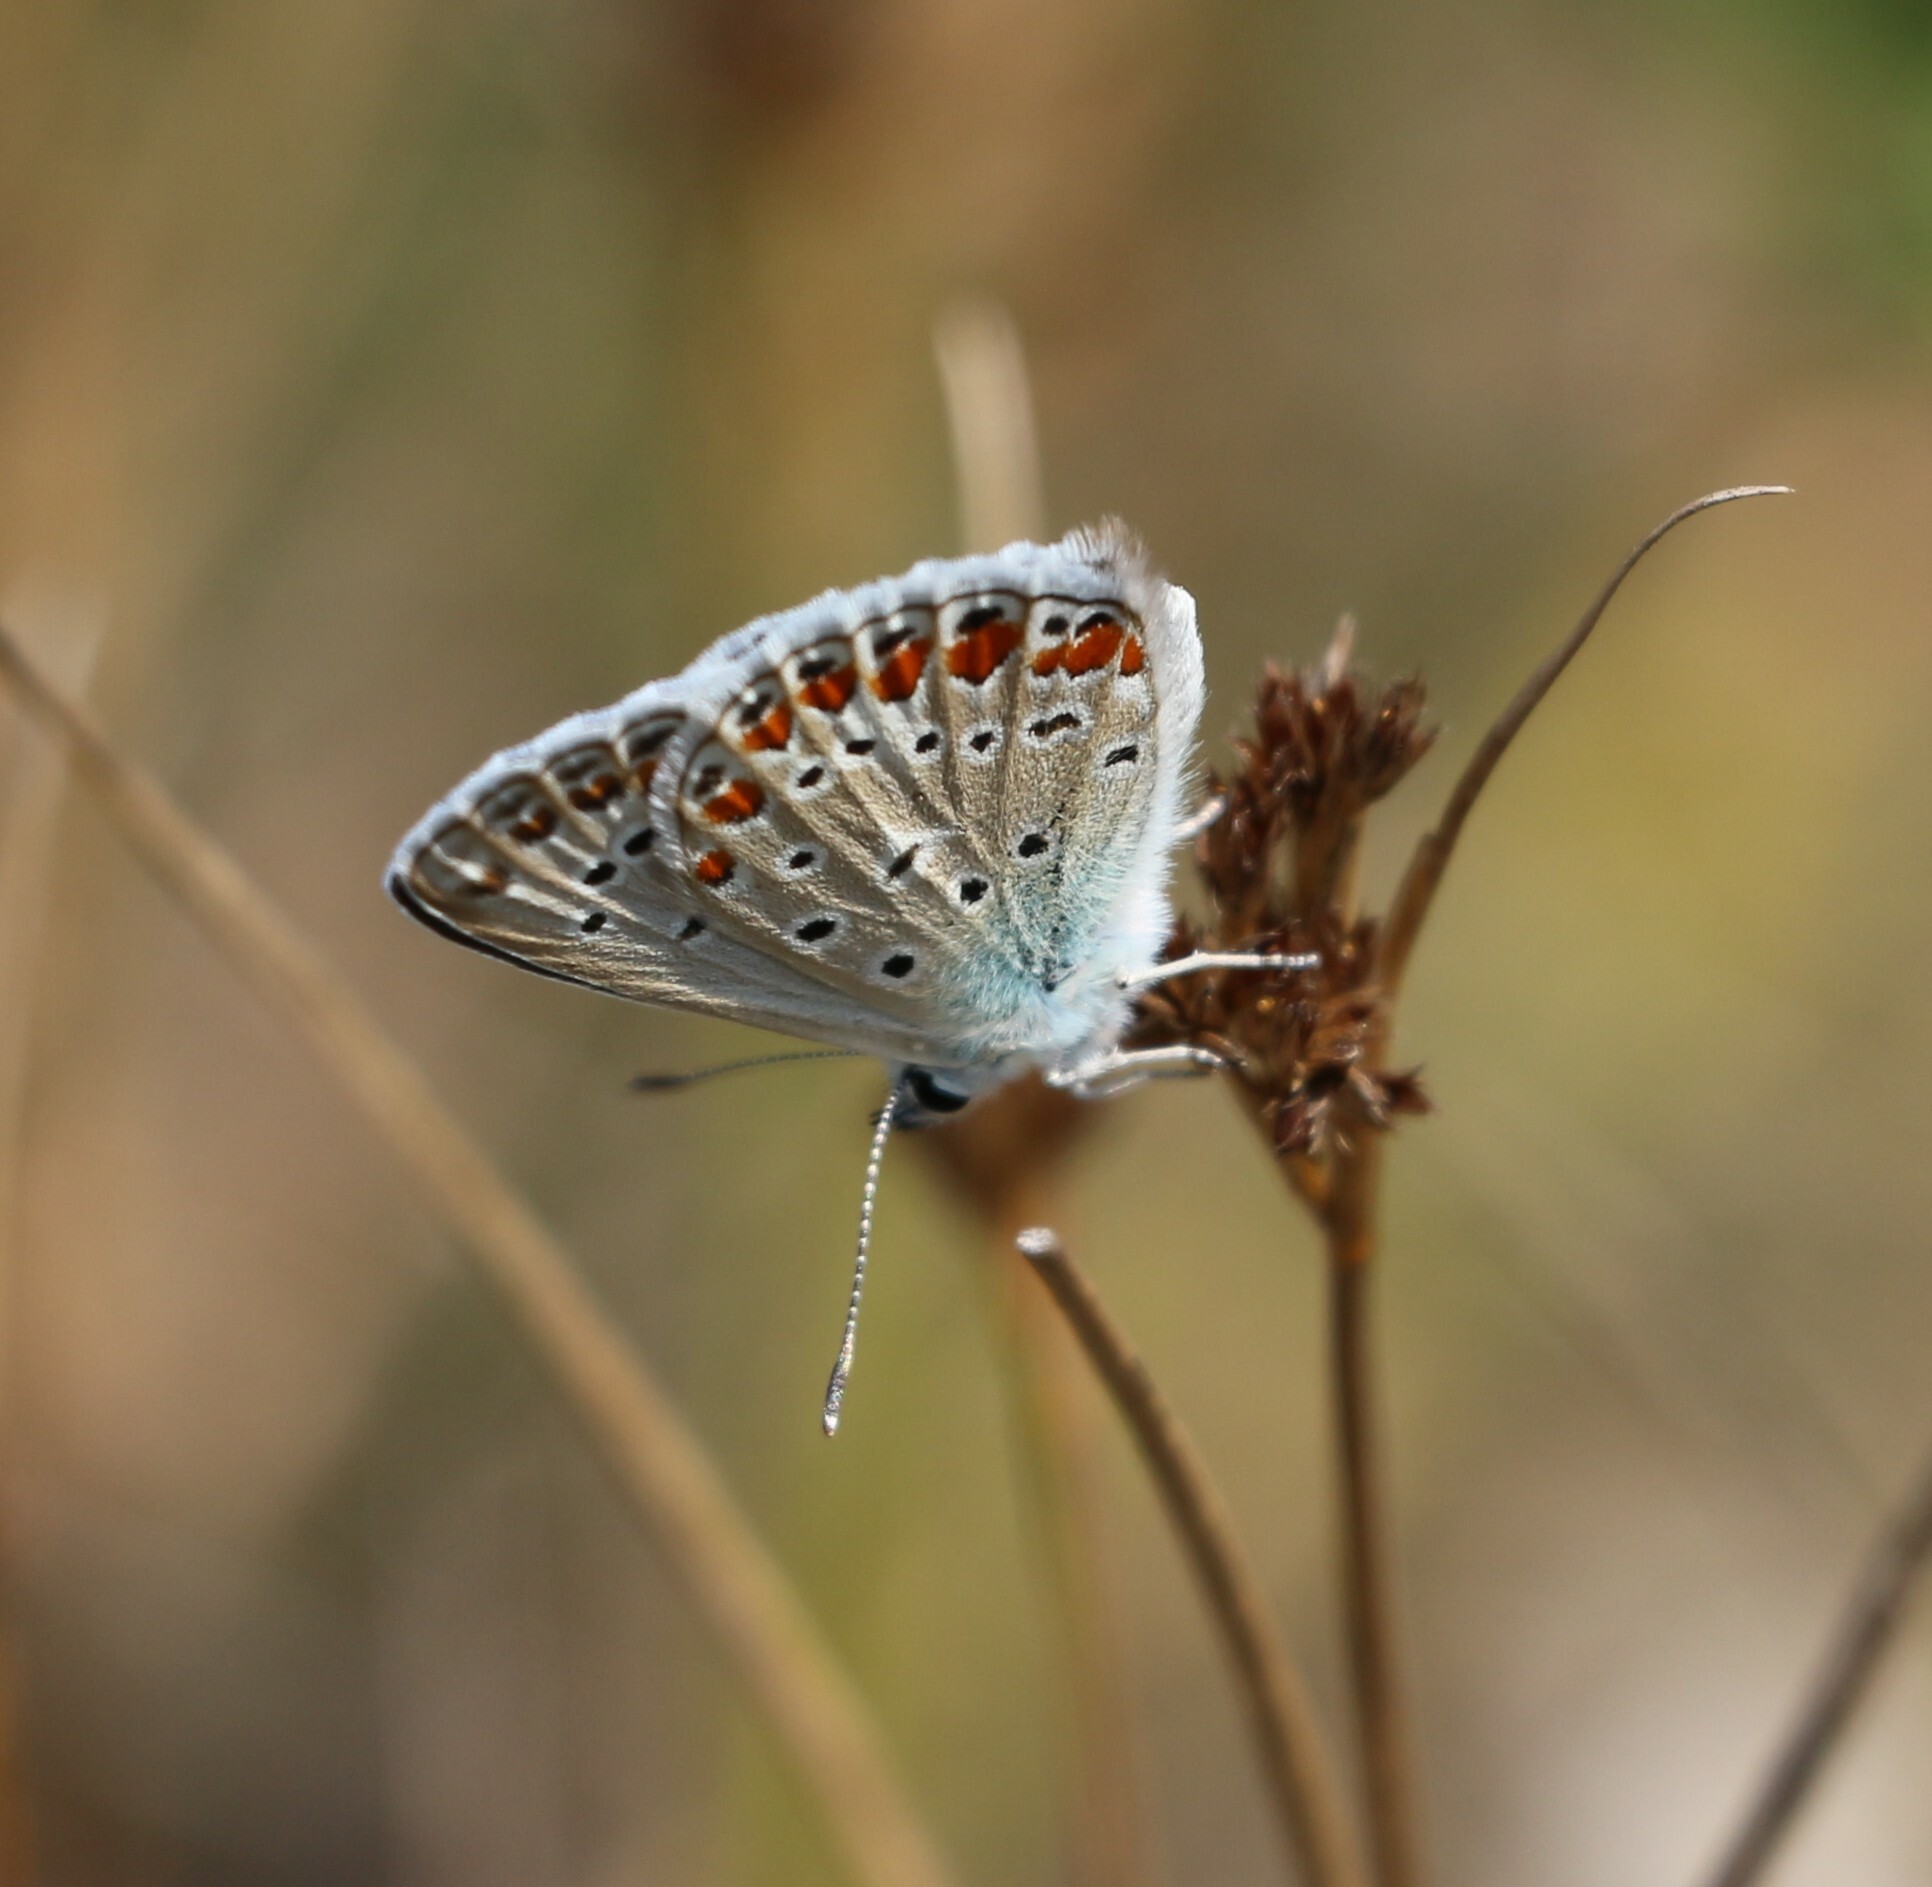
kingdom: Animalia
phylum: Arthropoda
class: Insecta
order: Lepidoptera
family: Lycaenidae
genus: Polyommatus
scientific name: Polyommatus icarus
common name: Common blue
